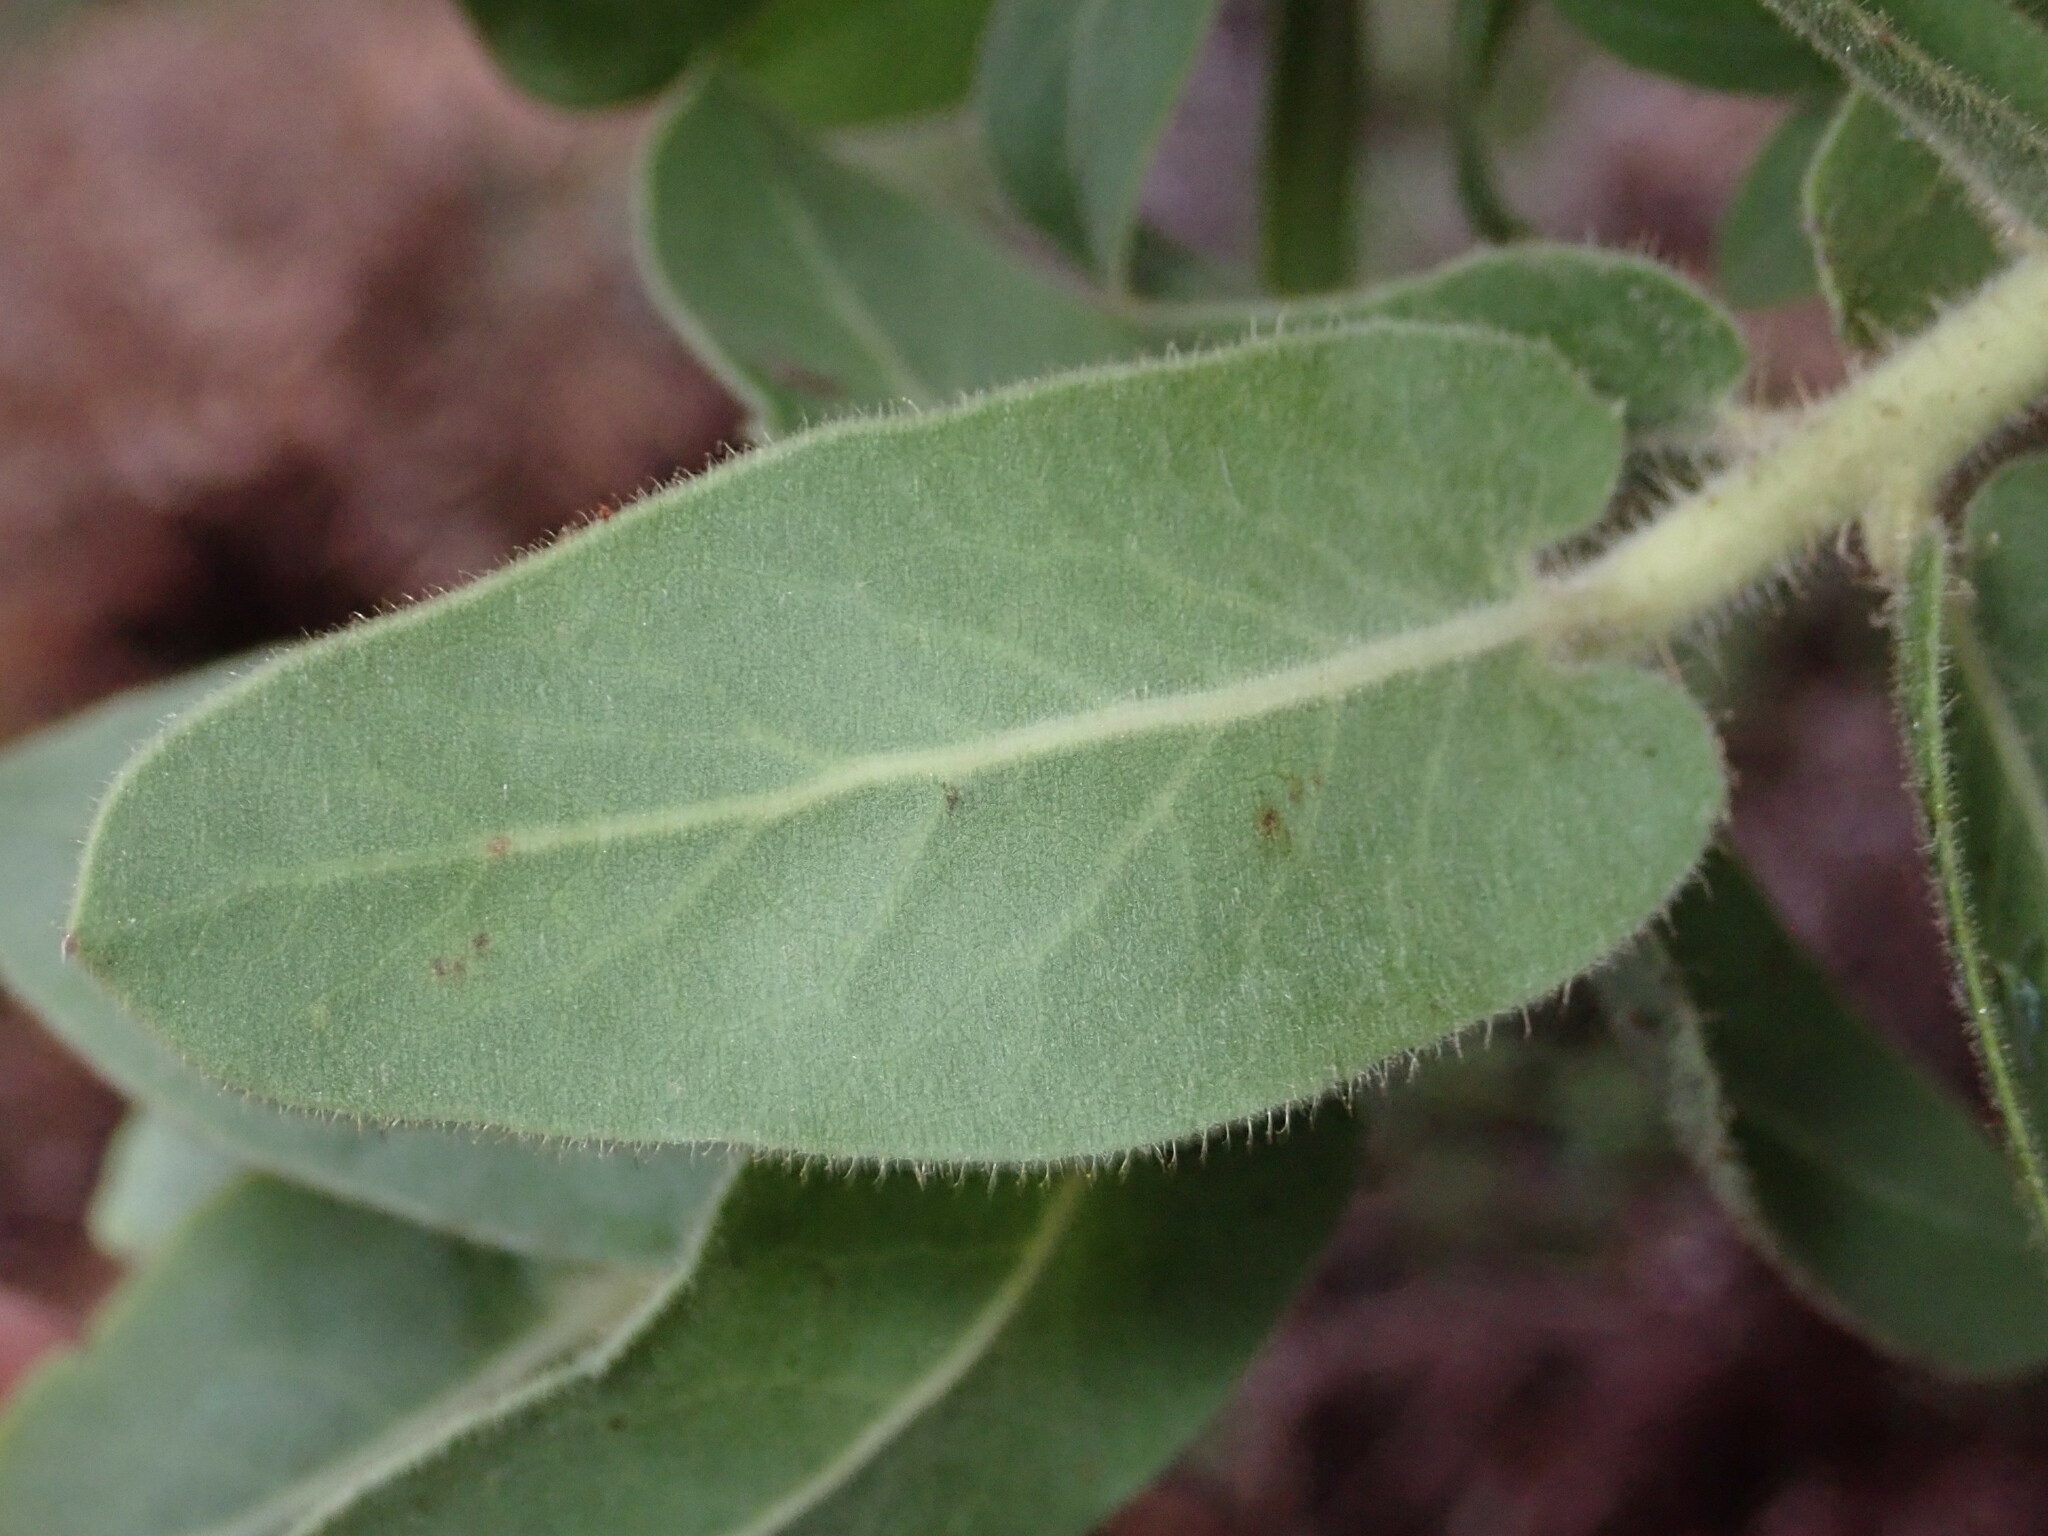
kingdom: Plantae
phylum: Tracheophyta
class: Magnoliopsida
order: Ericales
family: Ericaceae
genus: Arctostaphylos
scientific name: Arctostaphylos regismontana
